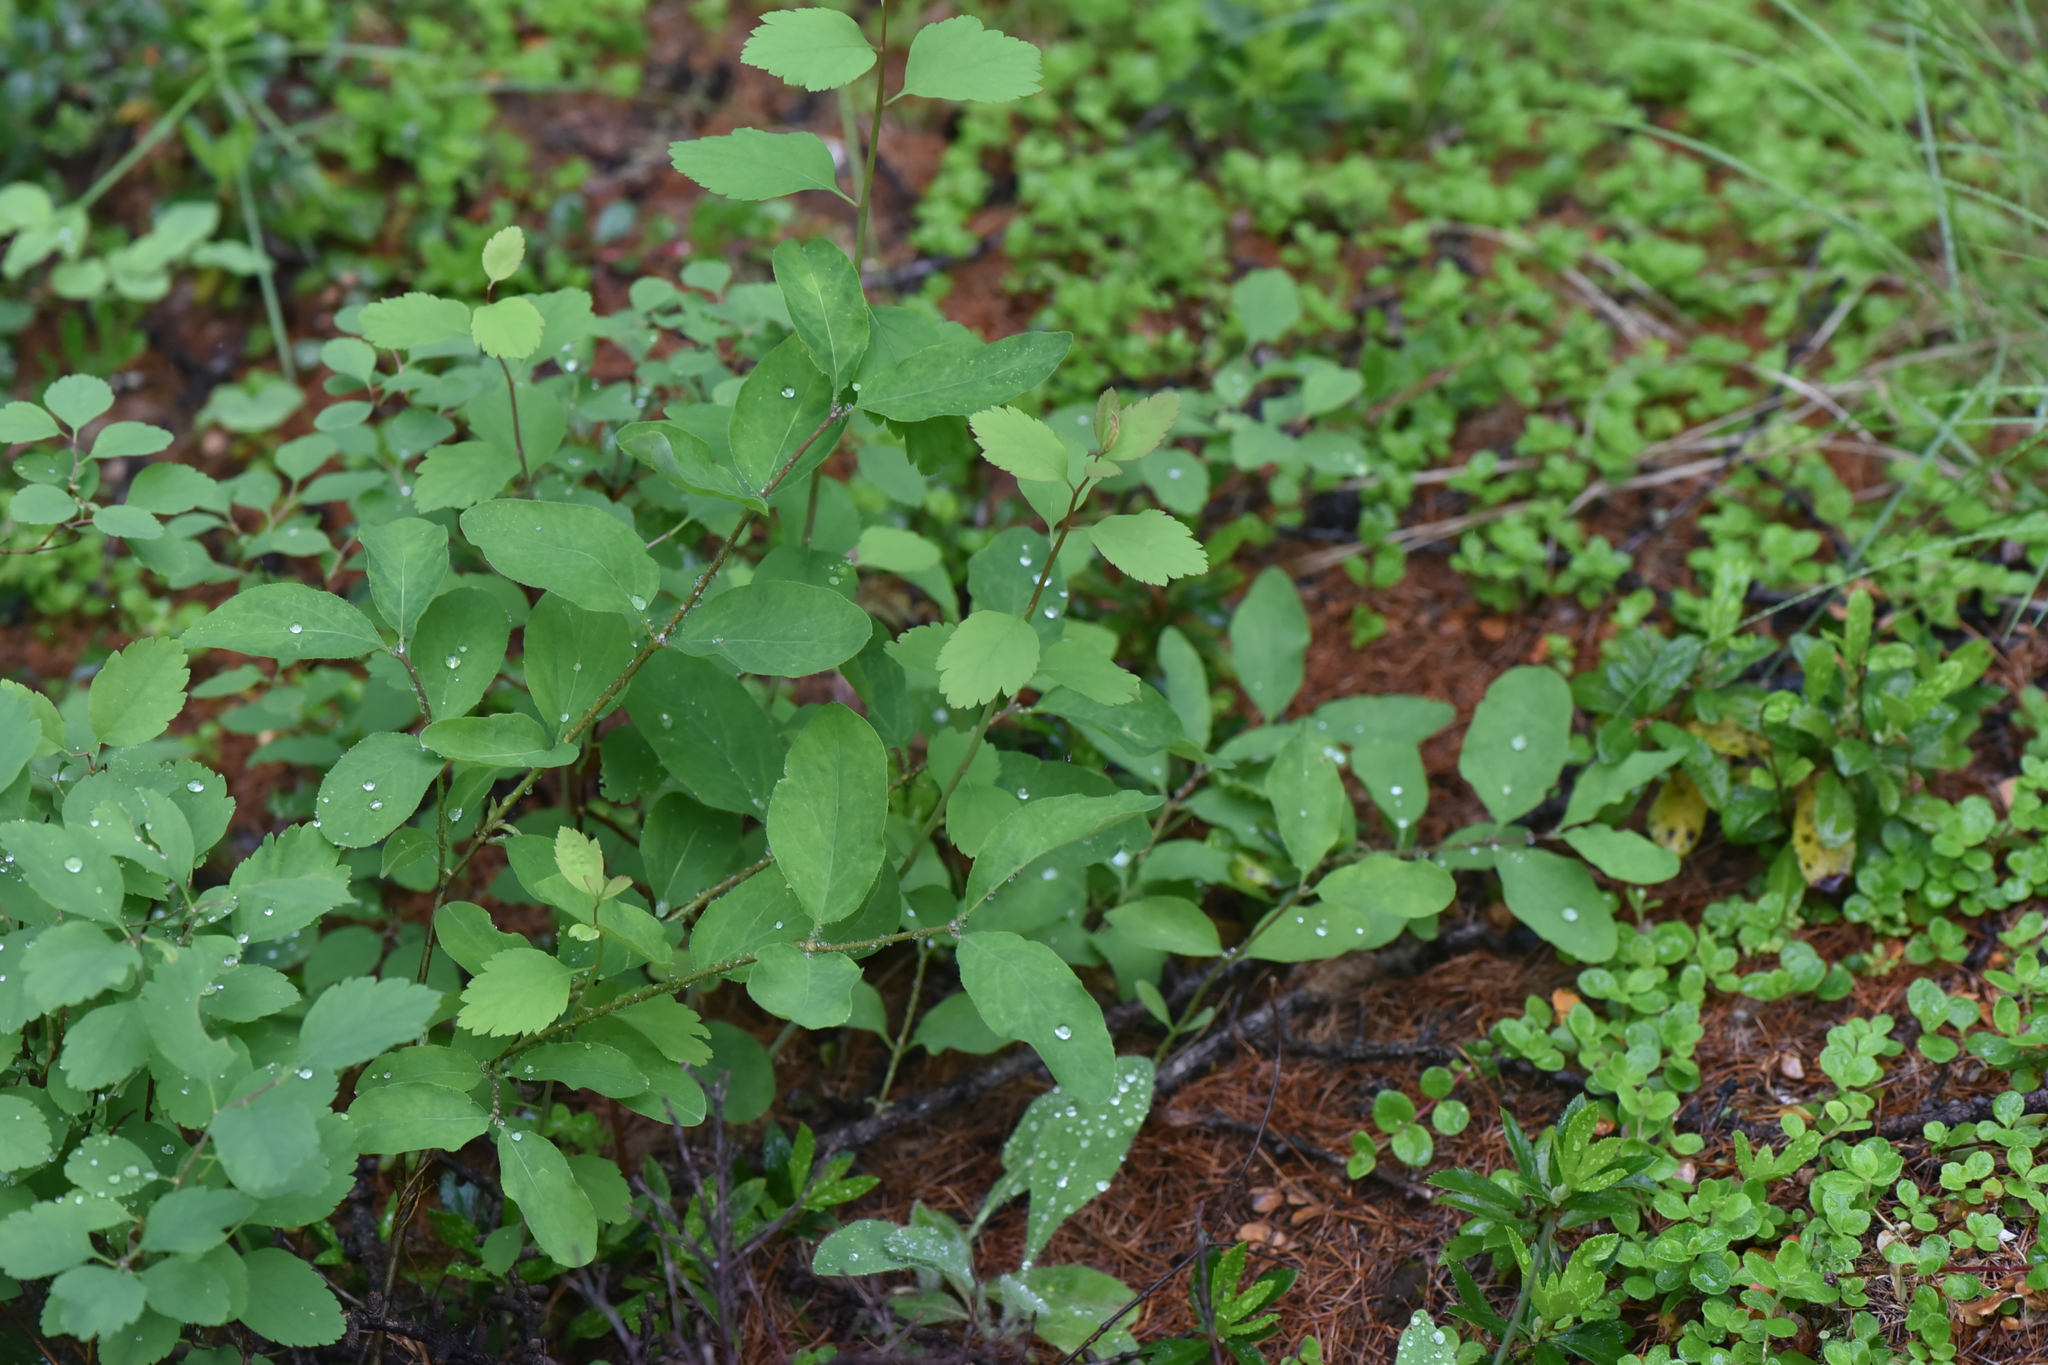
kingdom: Plantae
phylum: Tracheophyta
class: Magnoliopsida
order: Rosales
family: Rosaceae
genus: Spiraea
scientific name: Spiraea lucida
